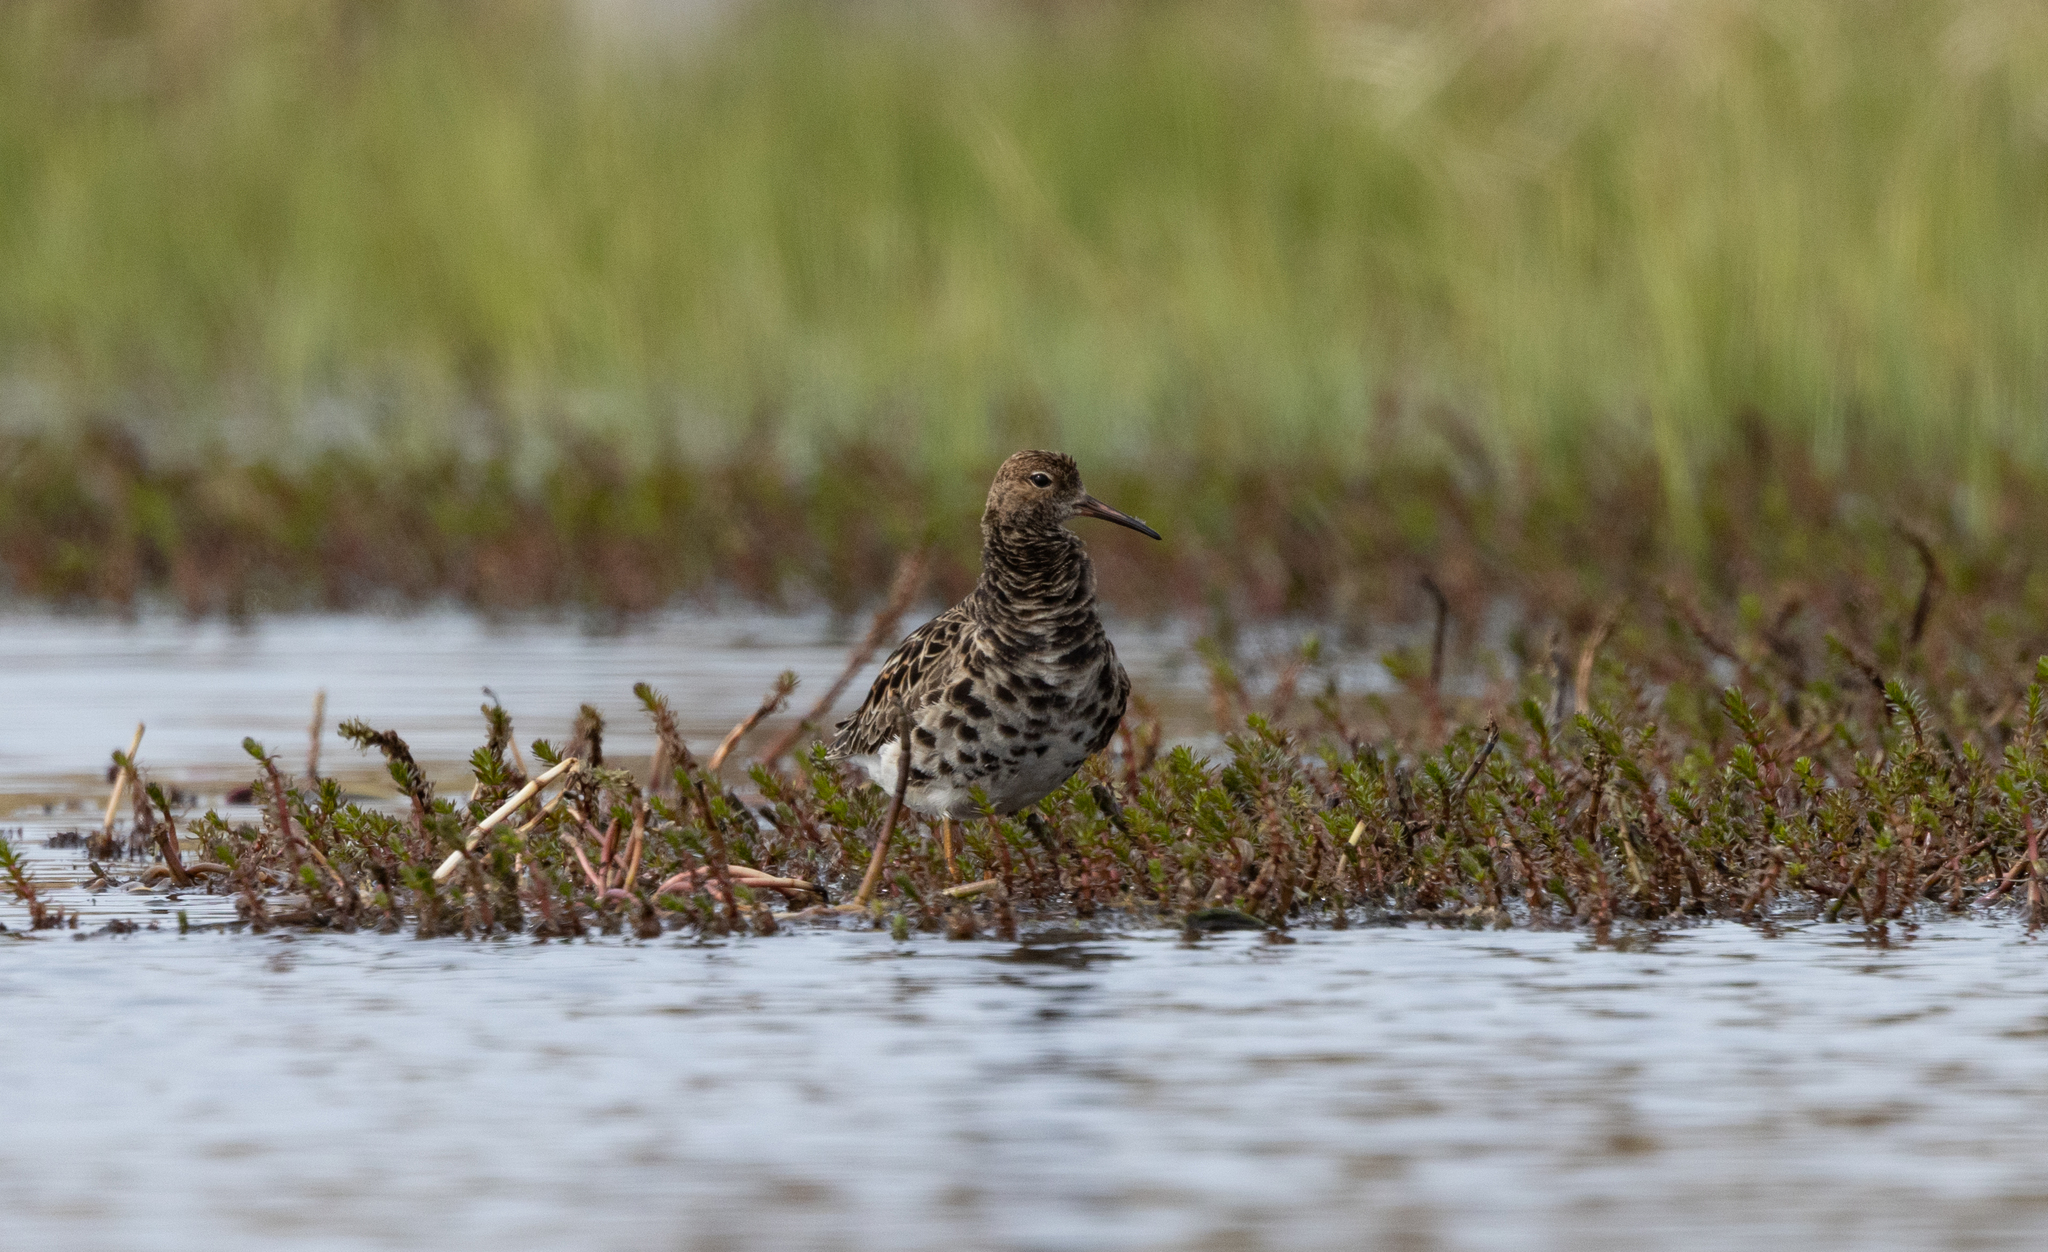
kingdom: Animalia
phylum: Chordata
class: Aves
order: Charadriiformes
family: Scolopacidae
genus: Calidris
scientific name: Calidris pugnax
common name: Ruff
